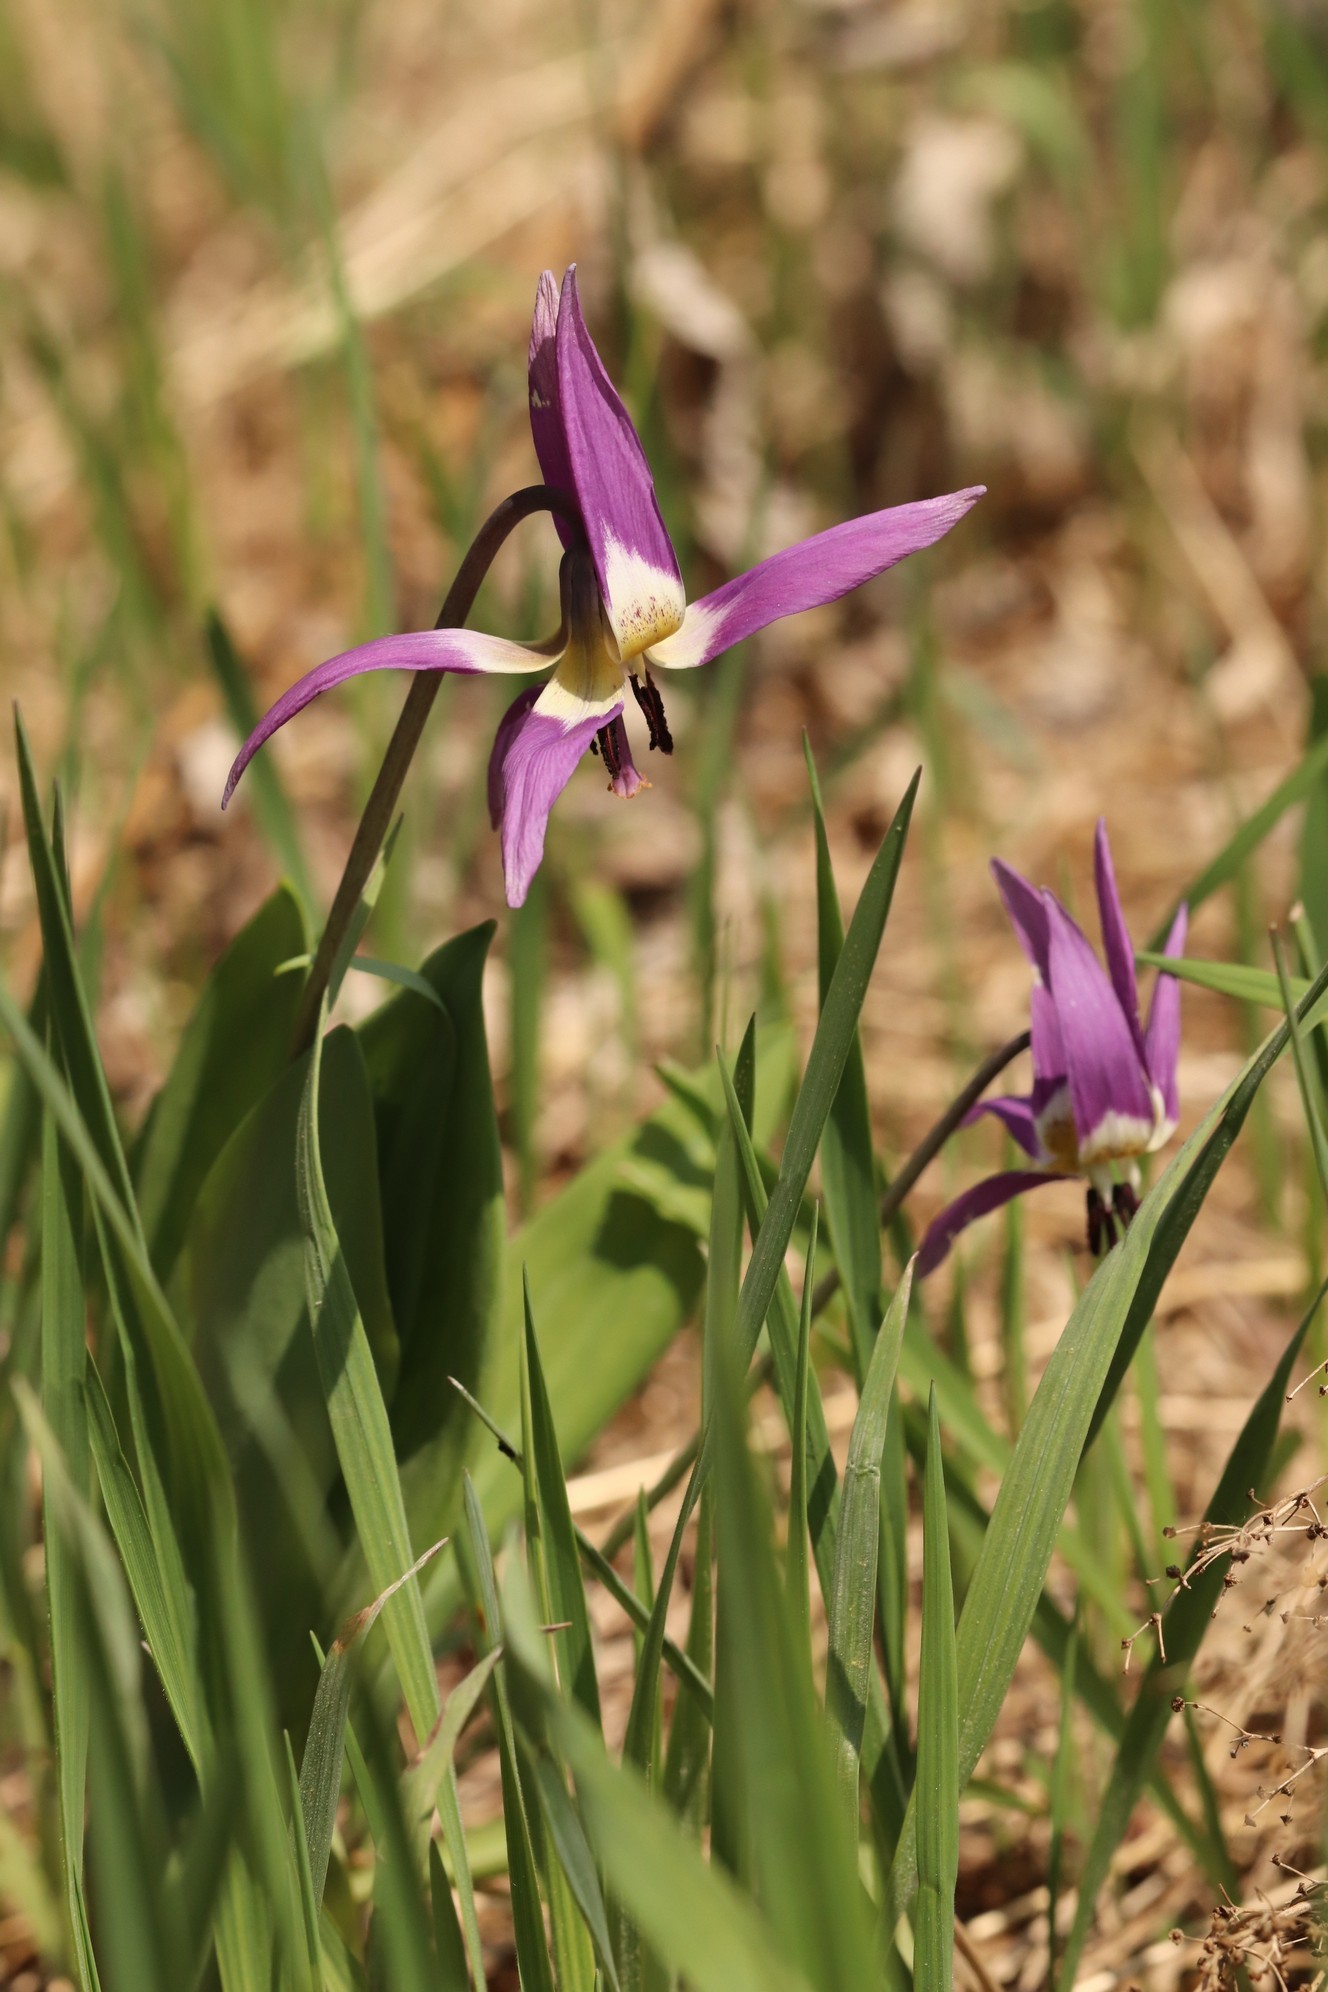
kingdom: Plantae
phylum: Tracheophyta
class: Liliopsida
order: Liliales
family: Liliaceae
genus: Erythronium
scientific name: Erythronium sulevii
